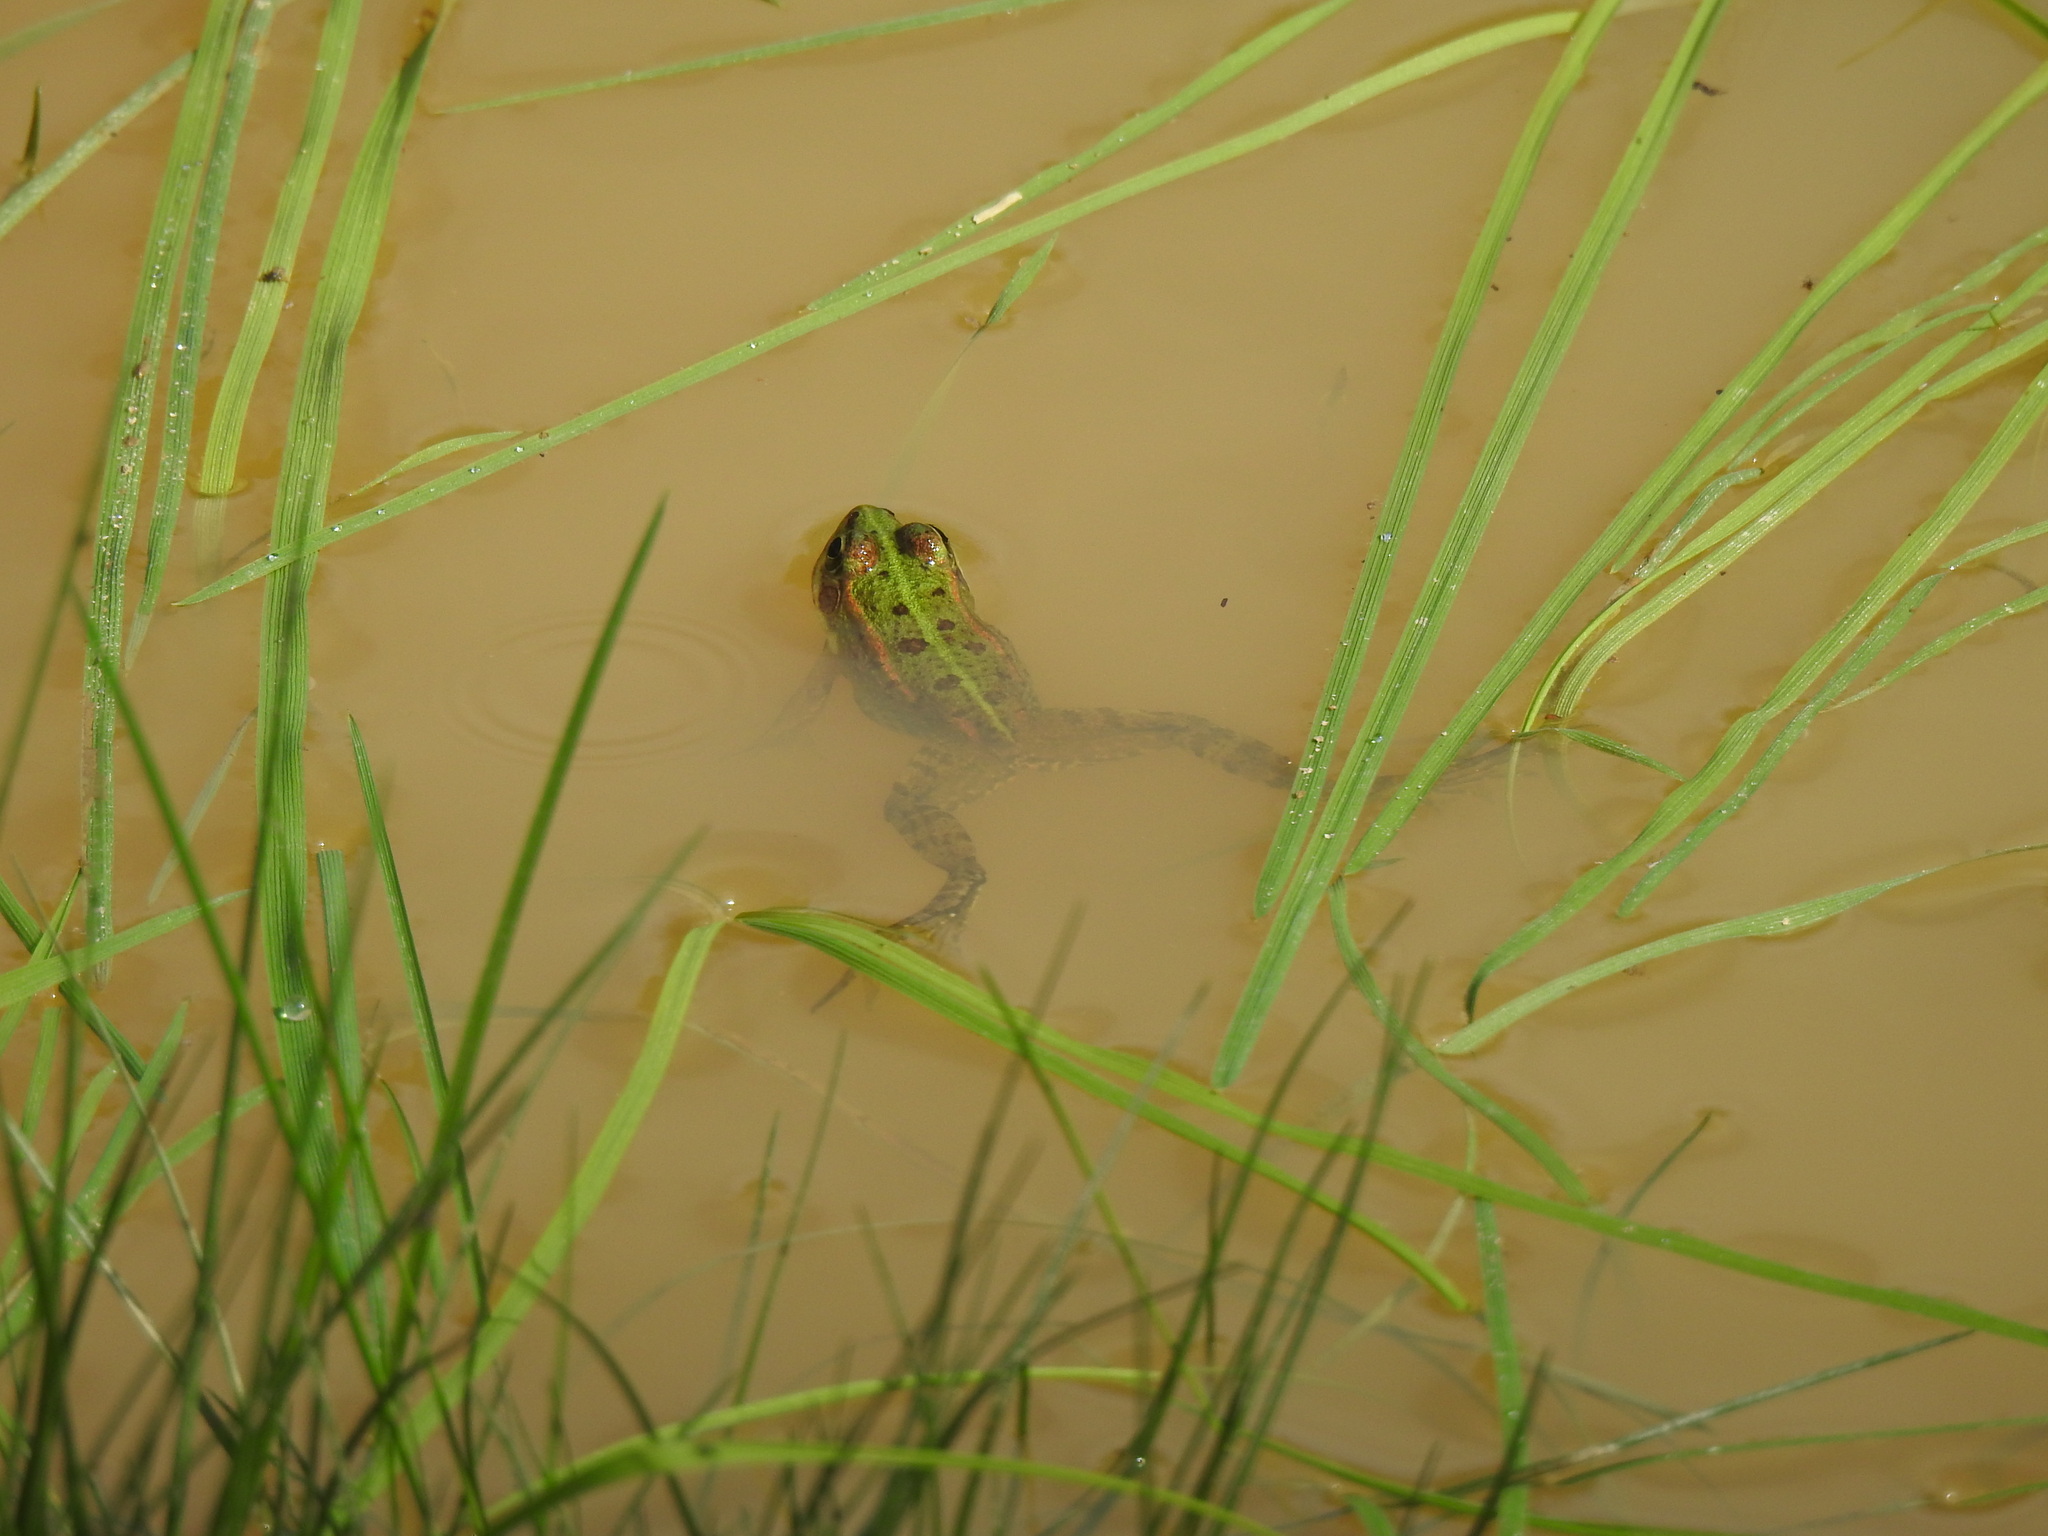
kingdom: Animalia
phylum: Chordata
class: Amphibia
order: Anura
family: Ranidae
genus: Pelophylax
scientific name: Pelophylax perezi
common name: Perez's frog
